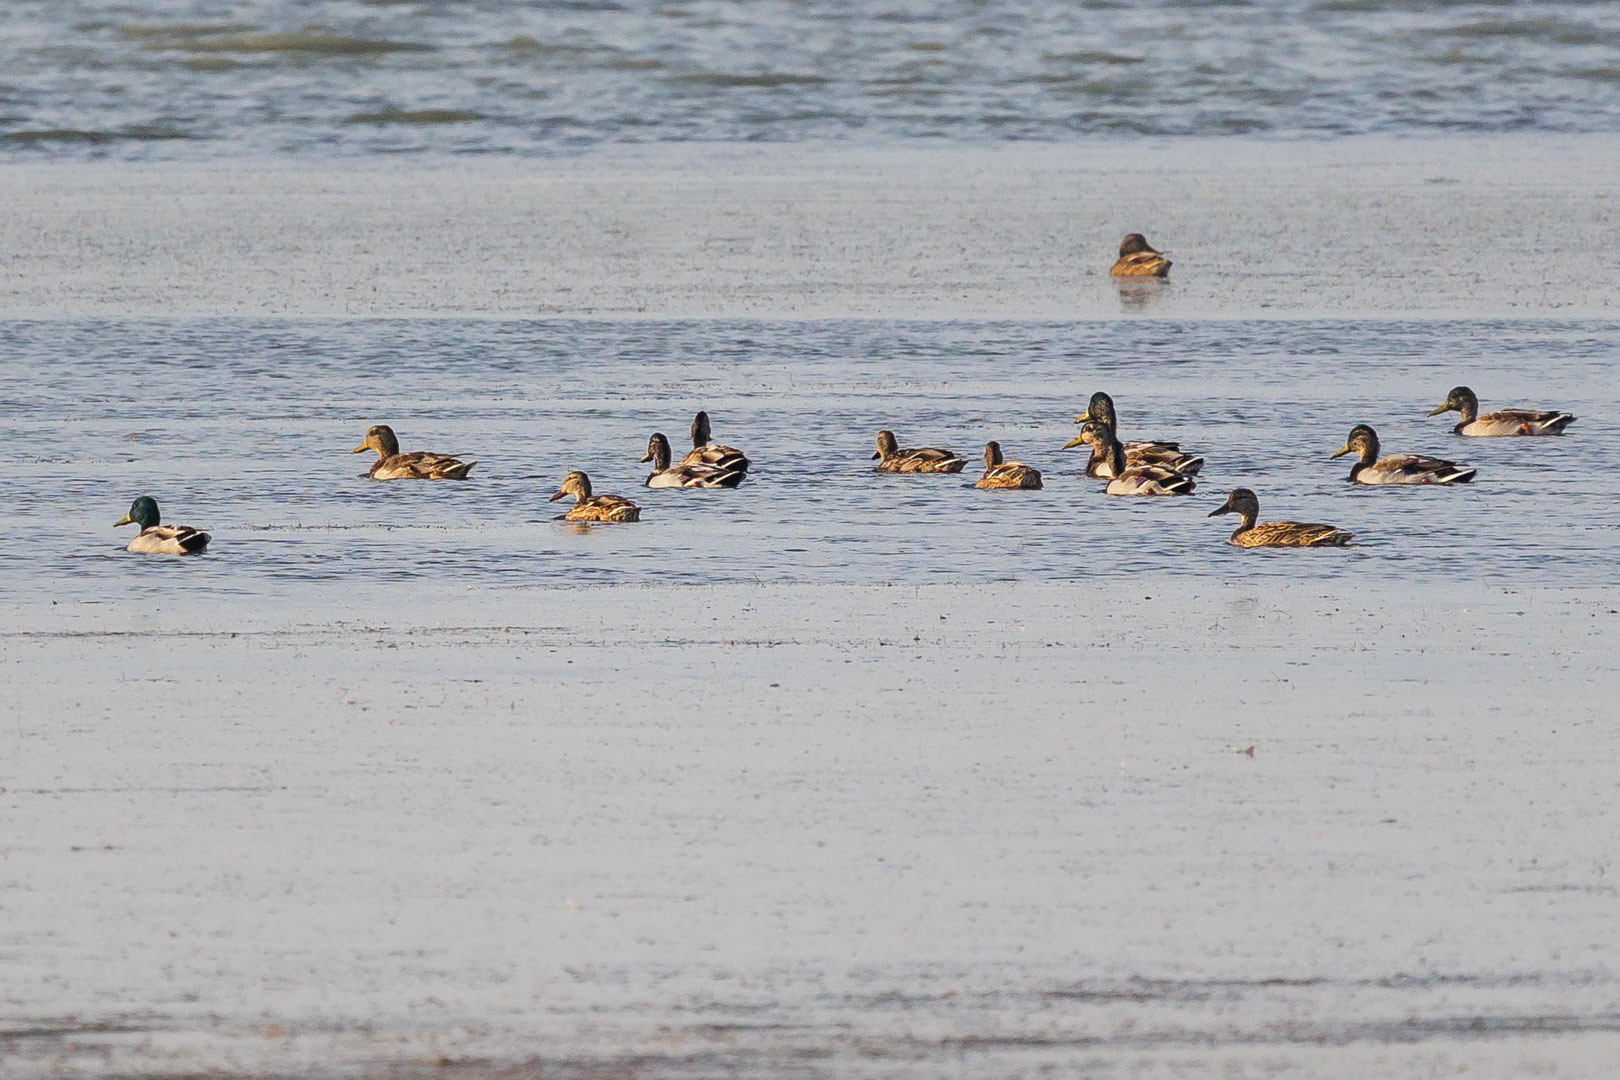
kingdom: Animalia
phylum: Chordata
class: Aves
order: Anseriformes
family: Anatidae
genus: Anas
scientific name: Anas platyrhynchos
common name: Mallard
